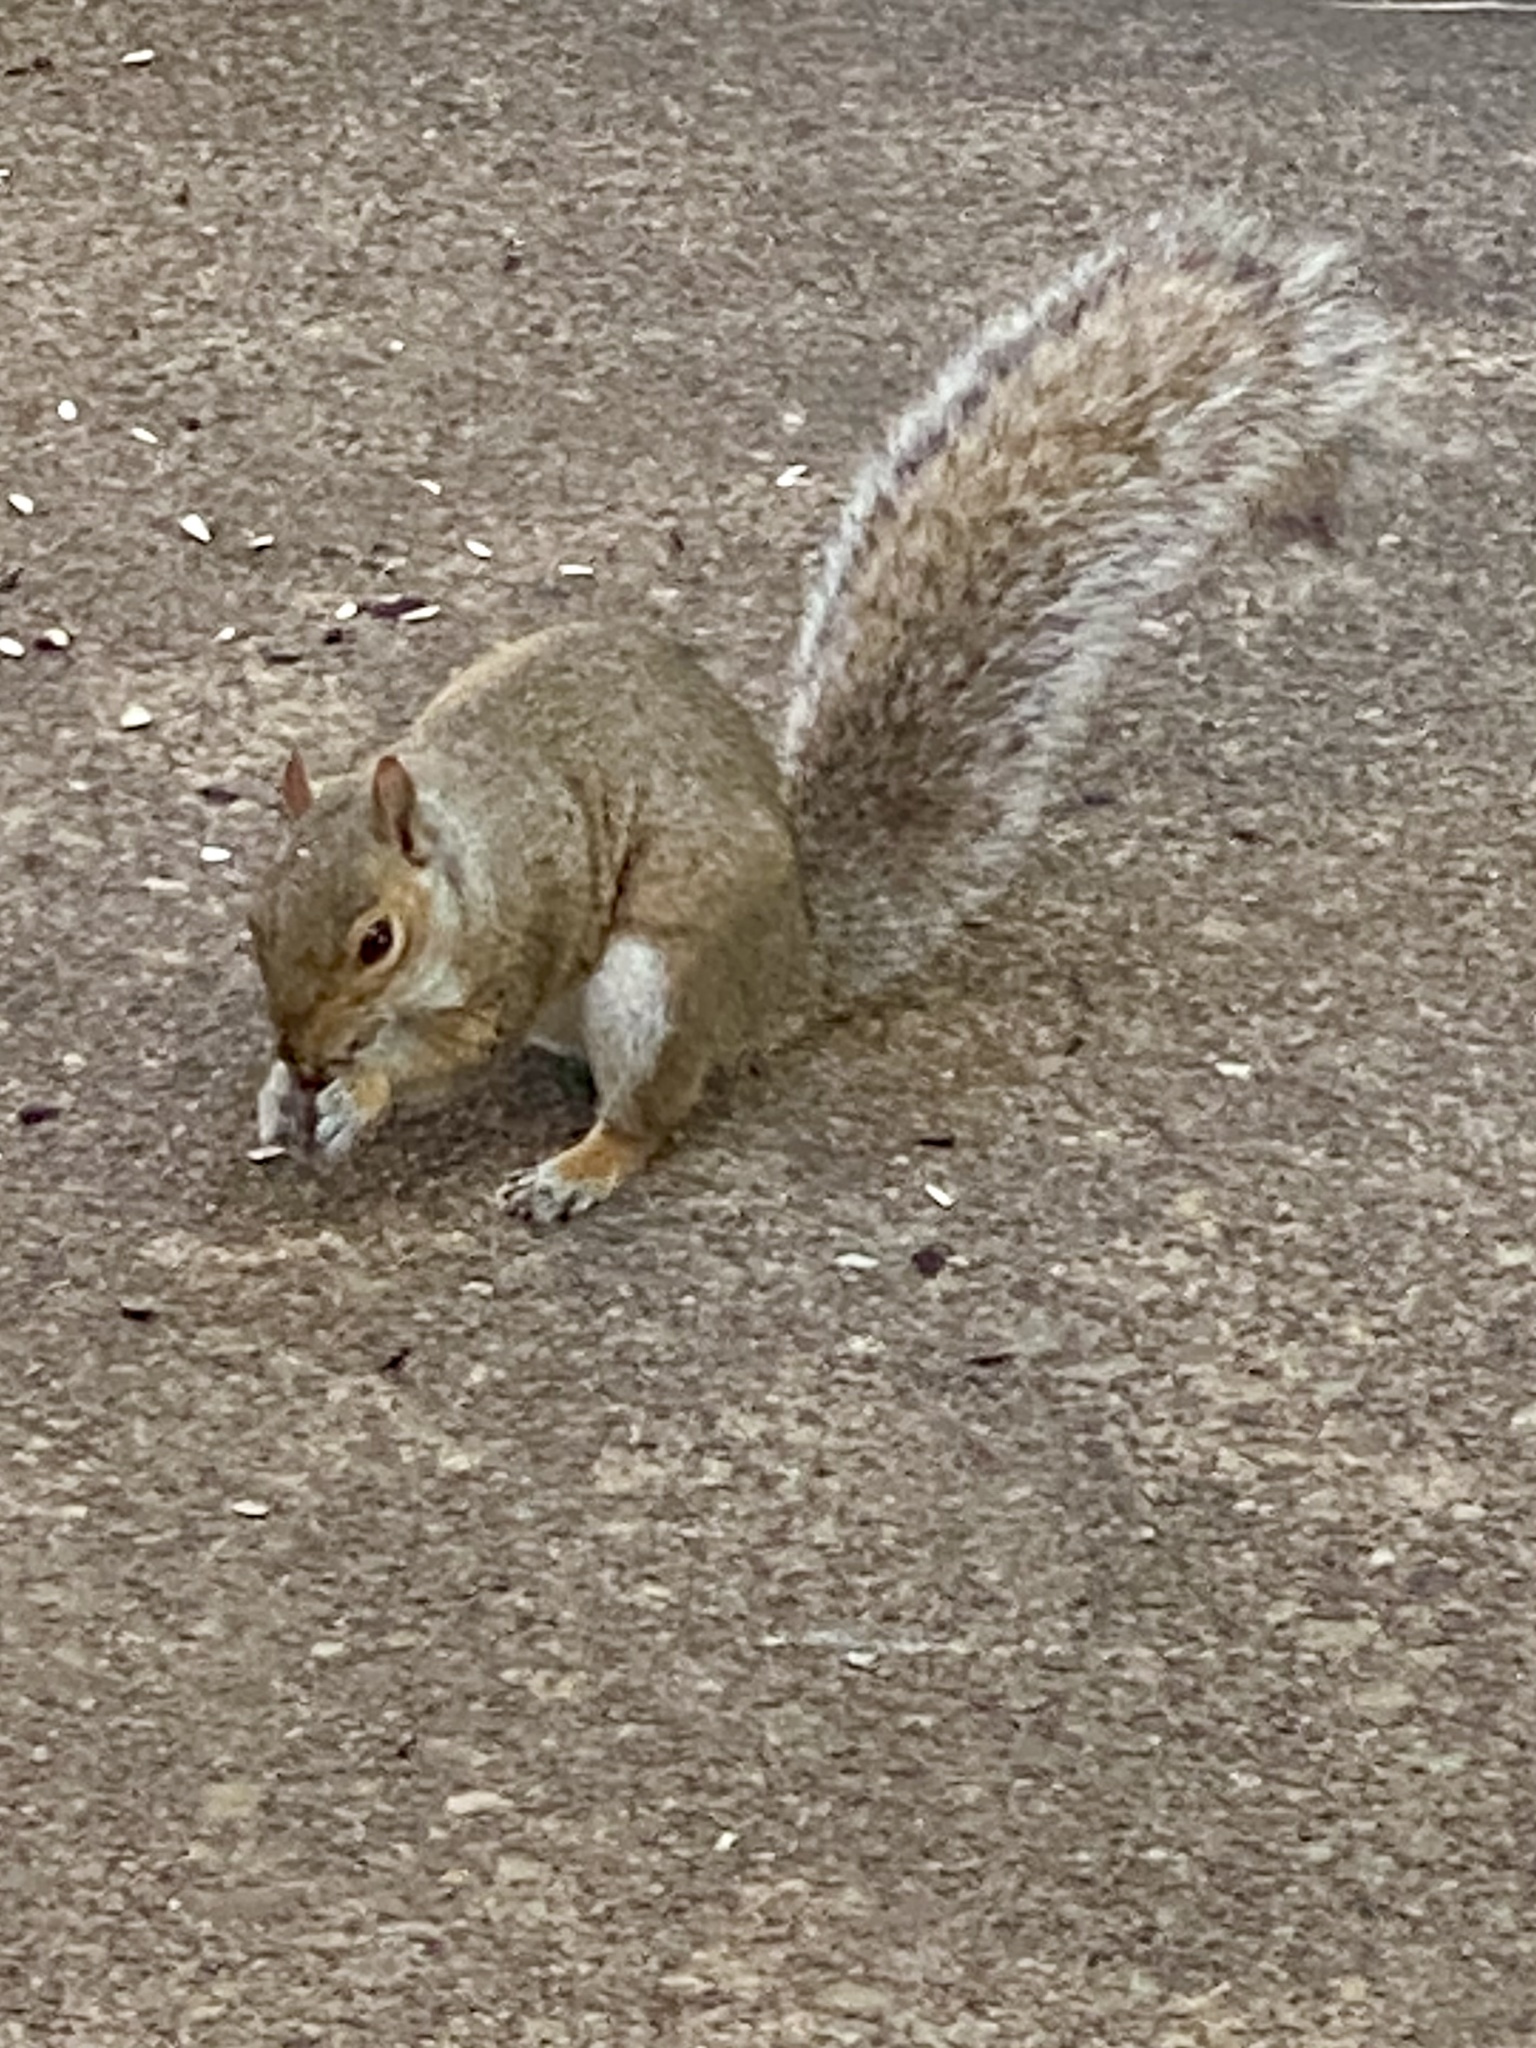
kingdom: Animalia
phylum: Chordata
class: Mammalia
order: Rodentia
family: Sciuridae
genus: Sciurus
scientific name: Sciurus carolinensis
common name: Eastern gray squirrel
